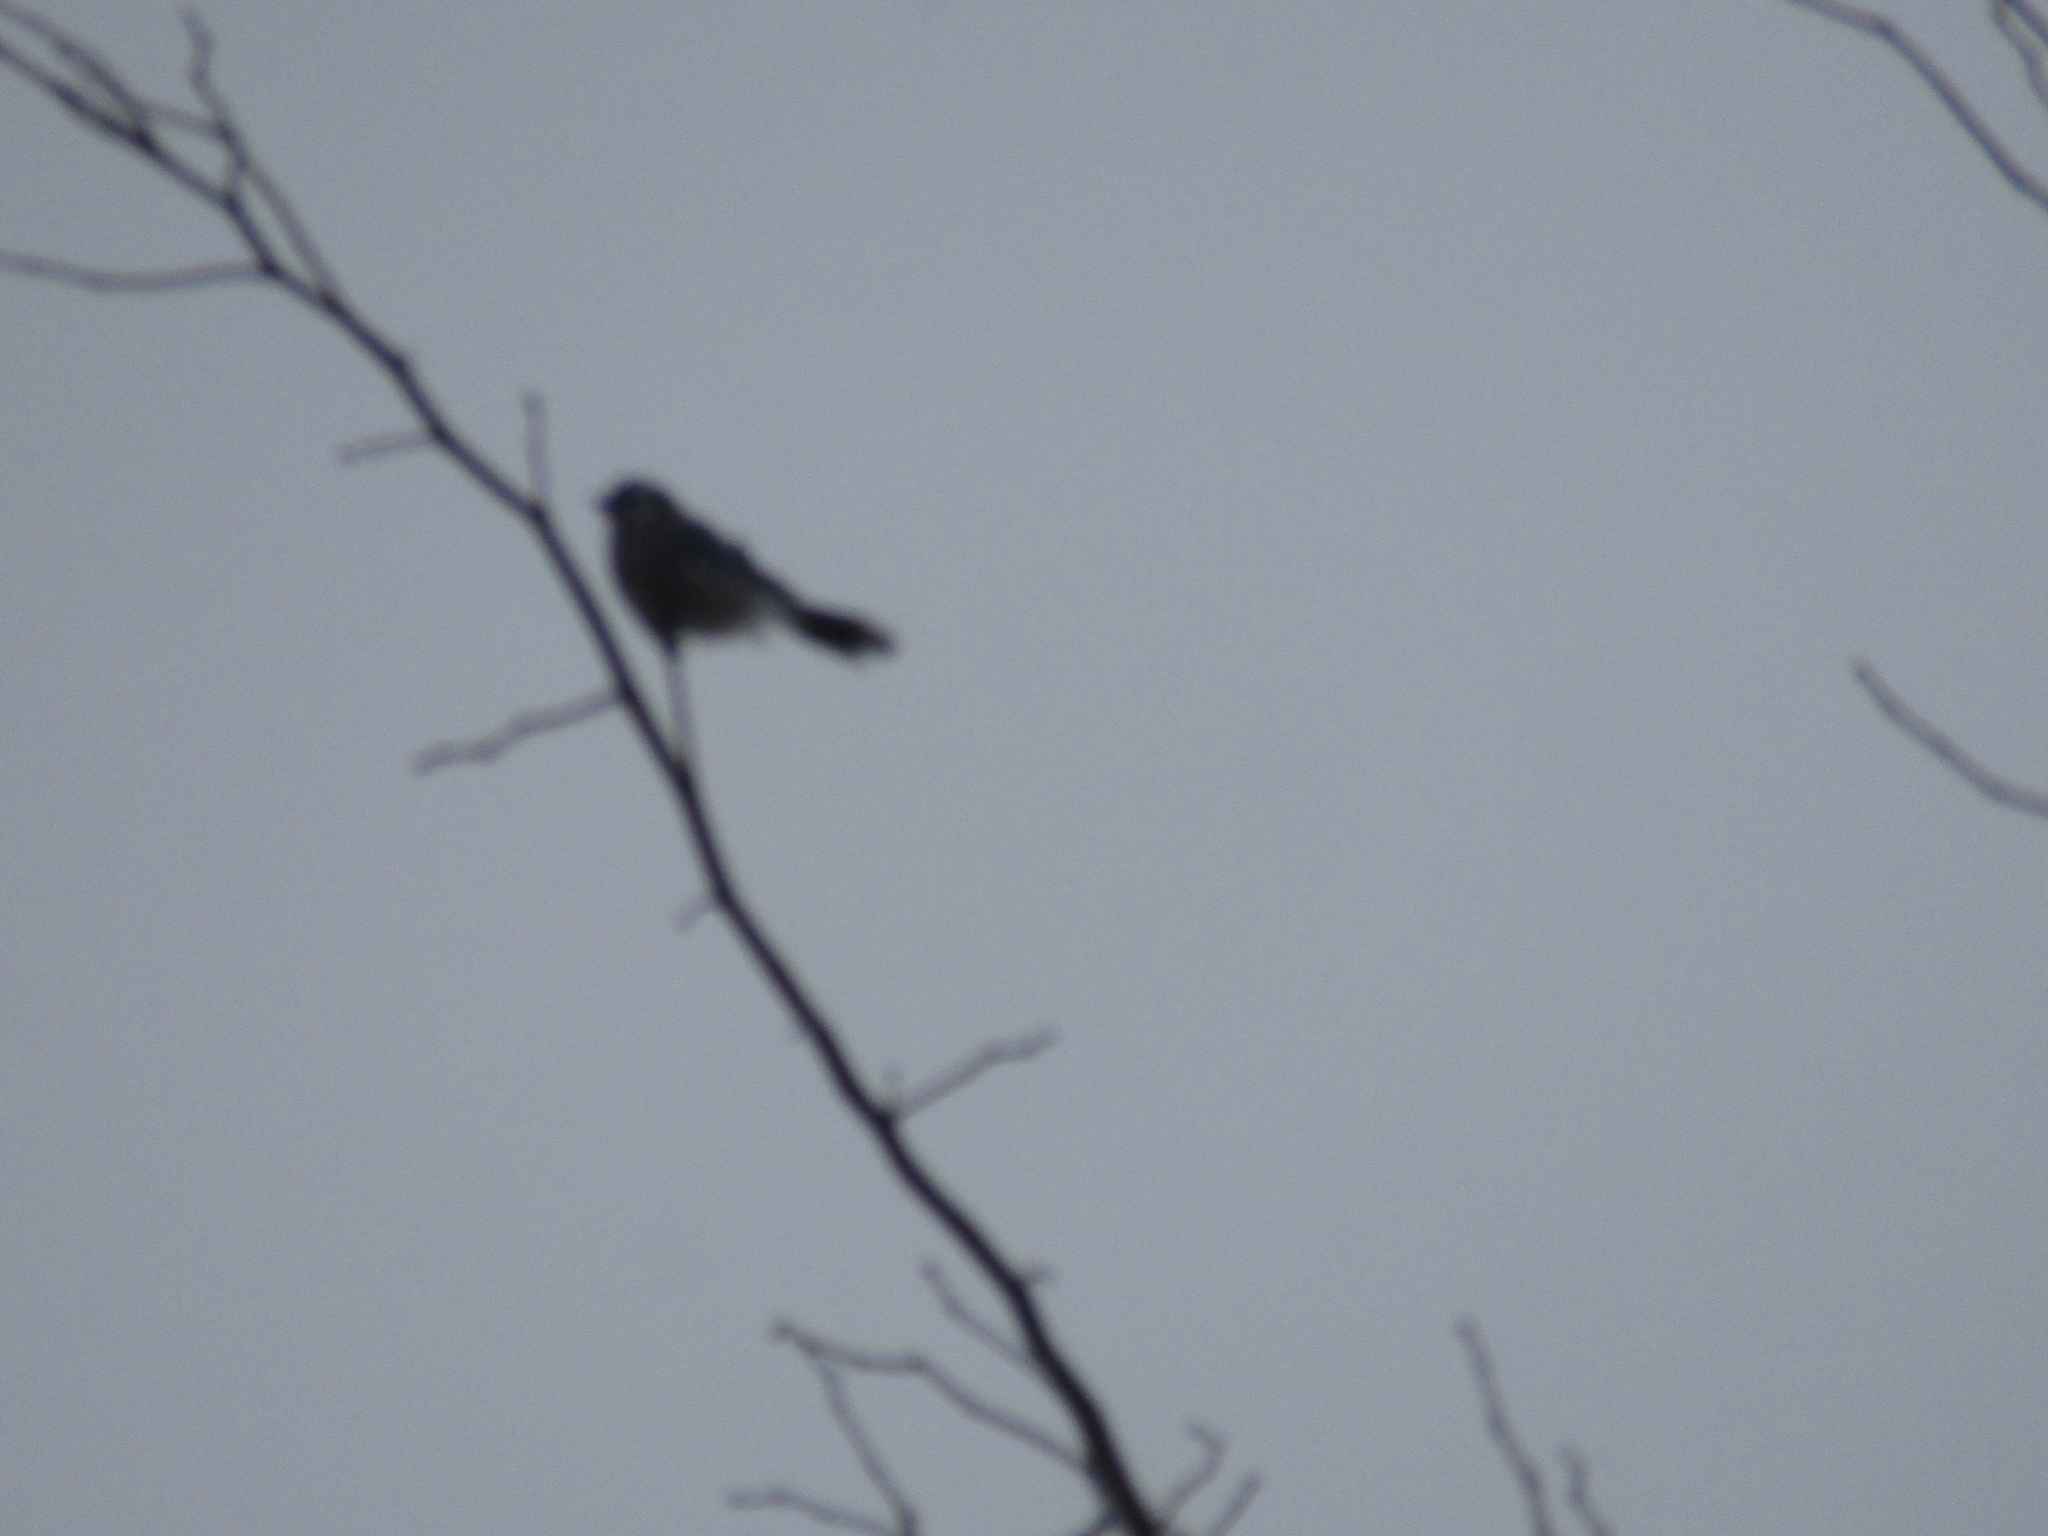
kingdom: Animalia
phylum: Chordata
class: Aves
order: Passeriformes
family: Corvidae
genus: Cyanocitta
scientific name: Cyanocitta cristata
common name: Blue jay
